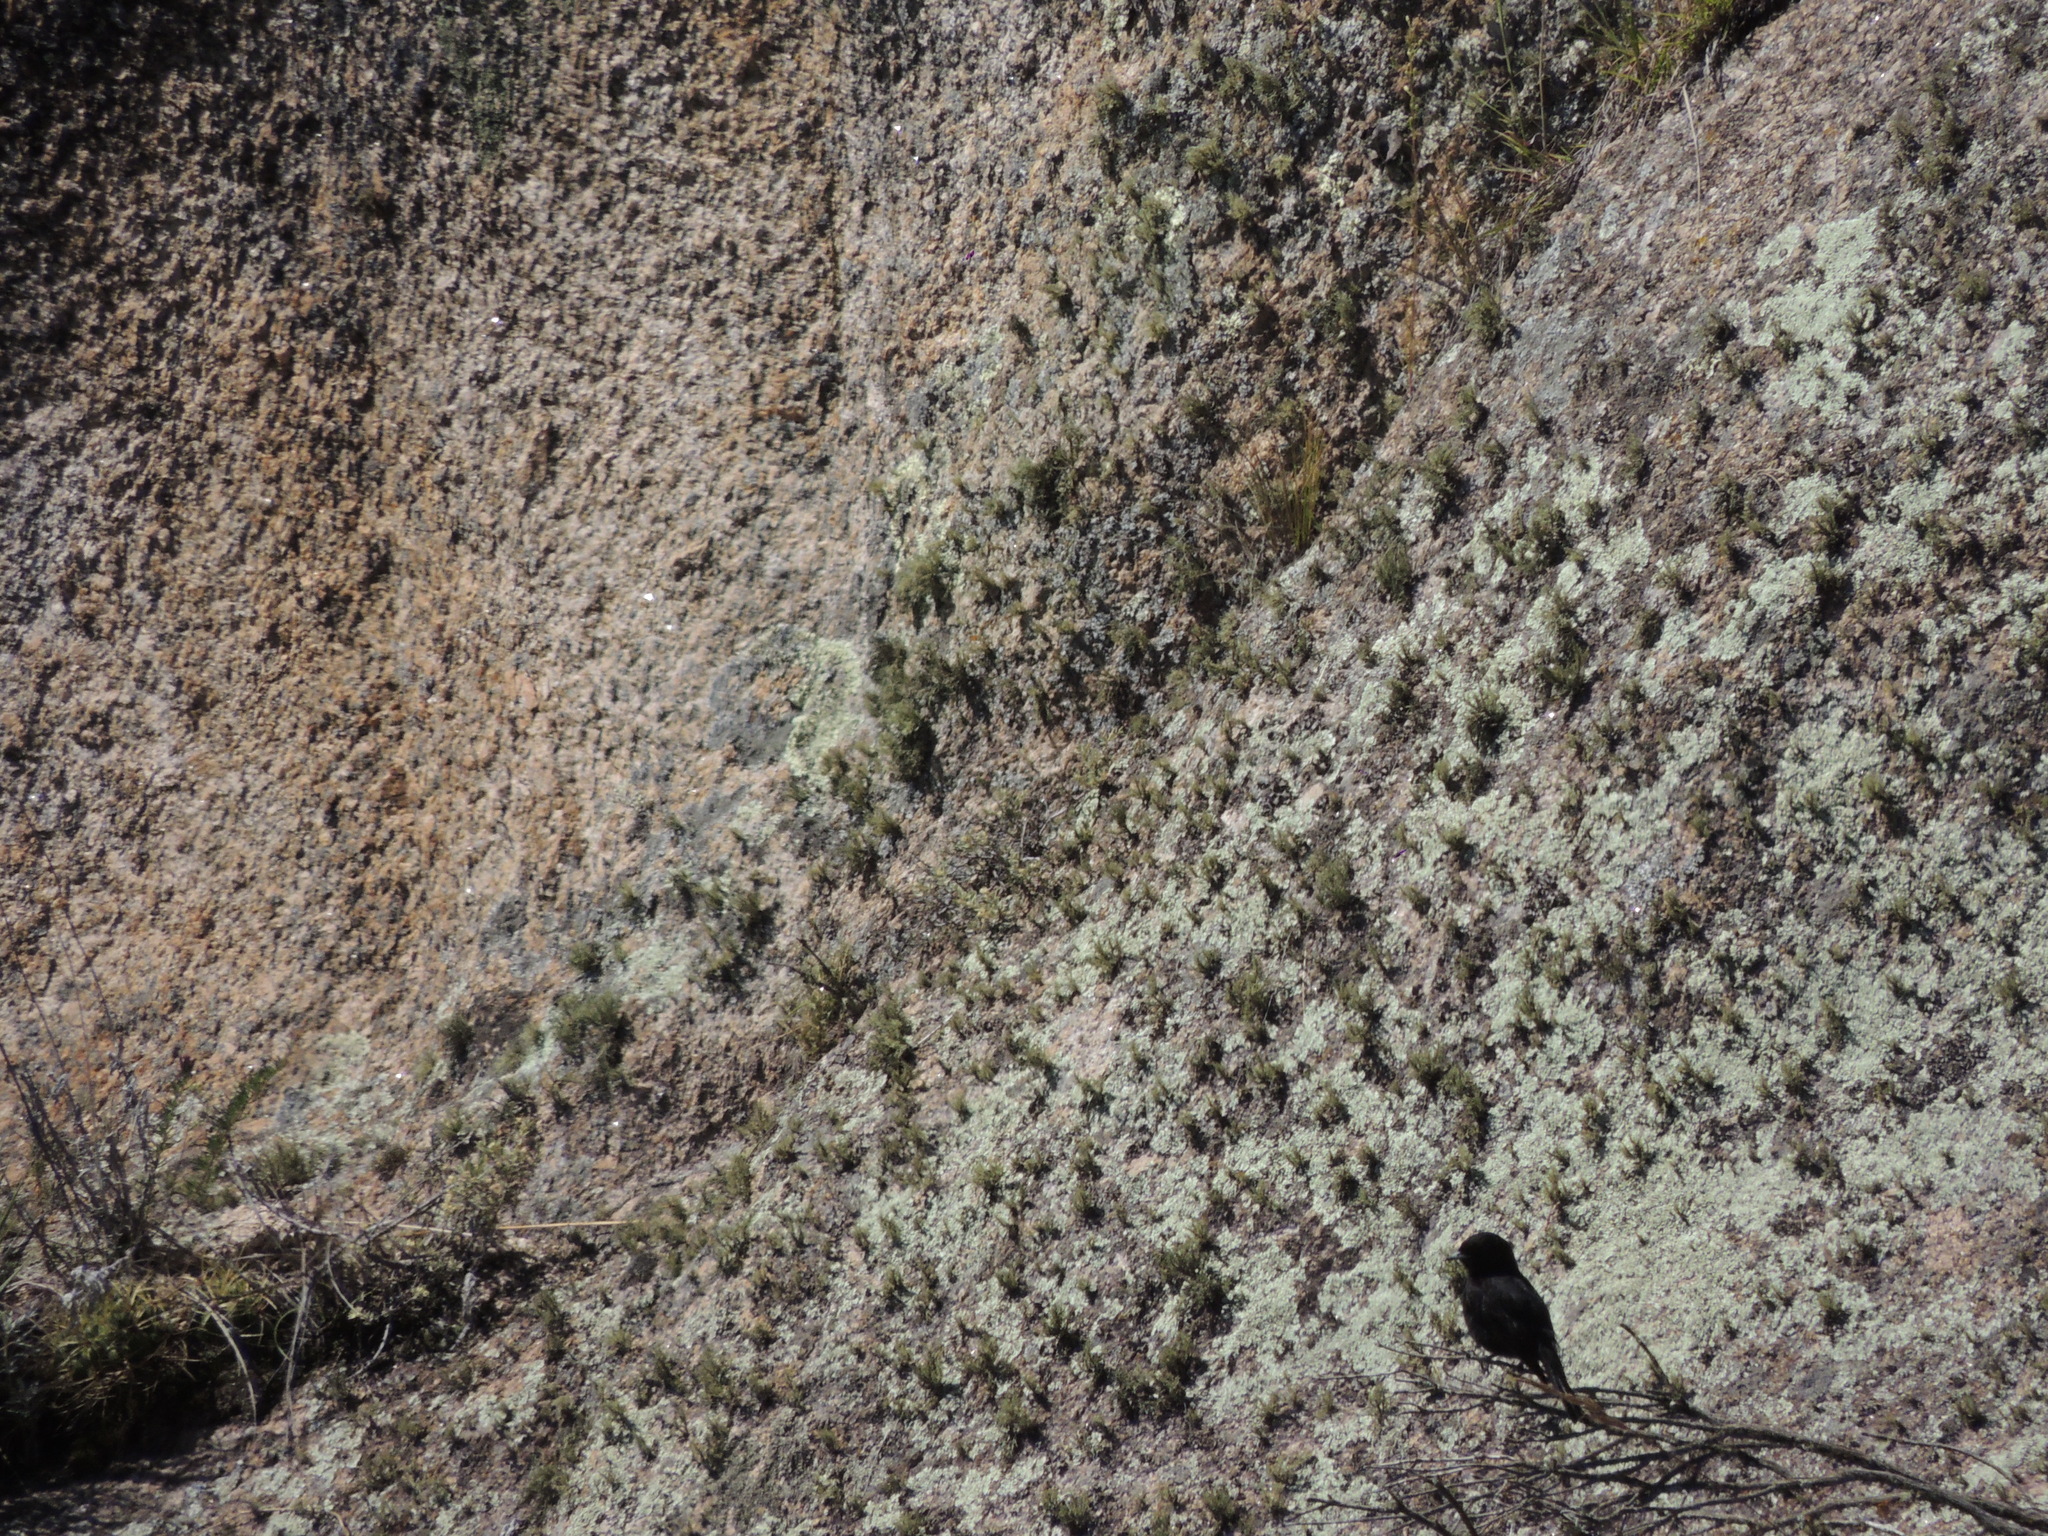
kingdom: Animalia
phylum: Chordata
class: Aves
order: Passeriformes
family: Tyrannidae
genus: Knipolegus
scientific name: Knipolegus aterrimus
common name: White-winged black tyrant
